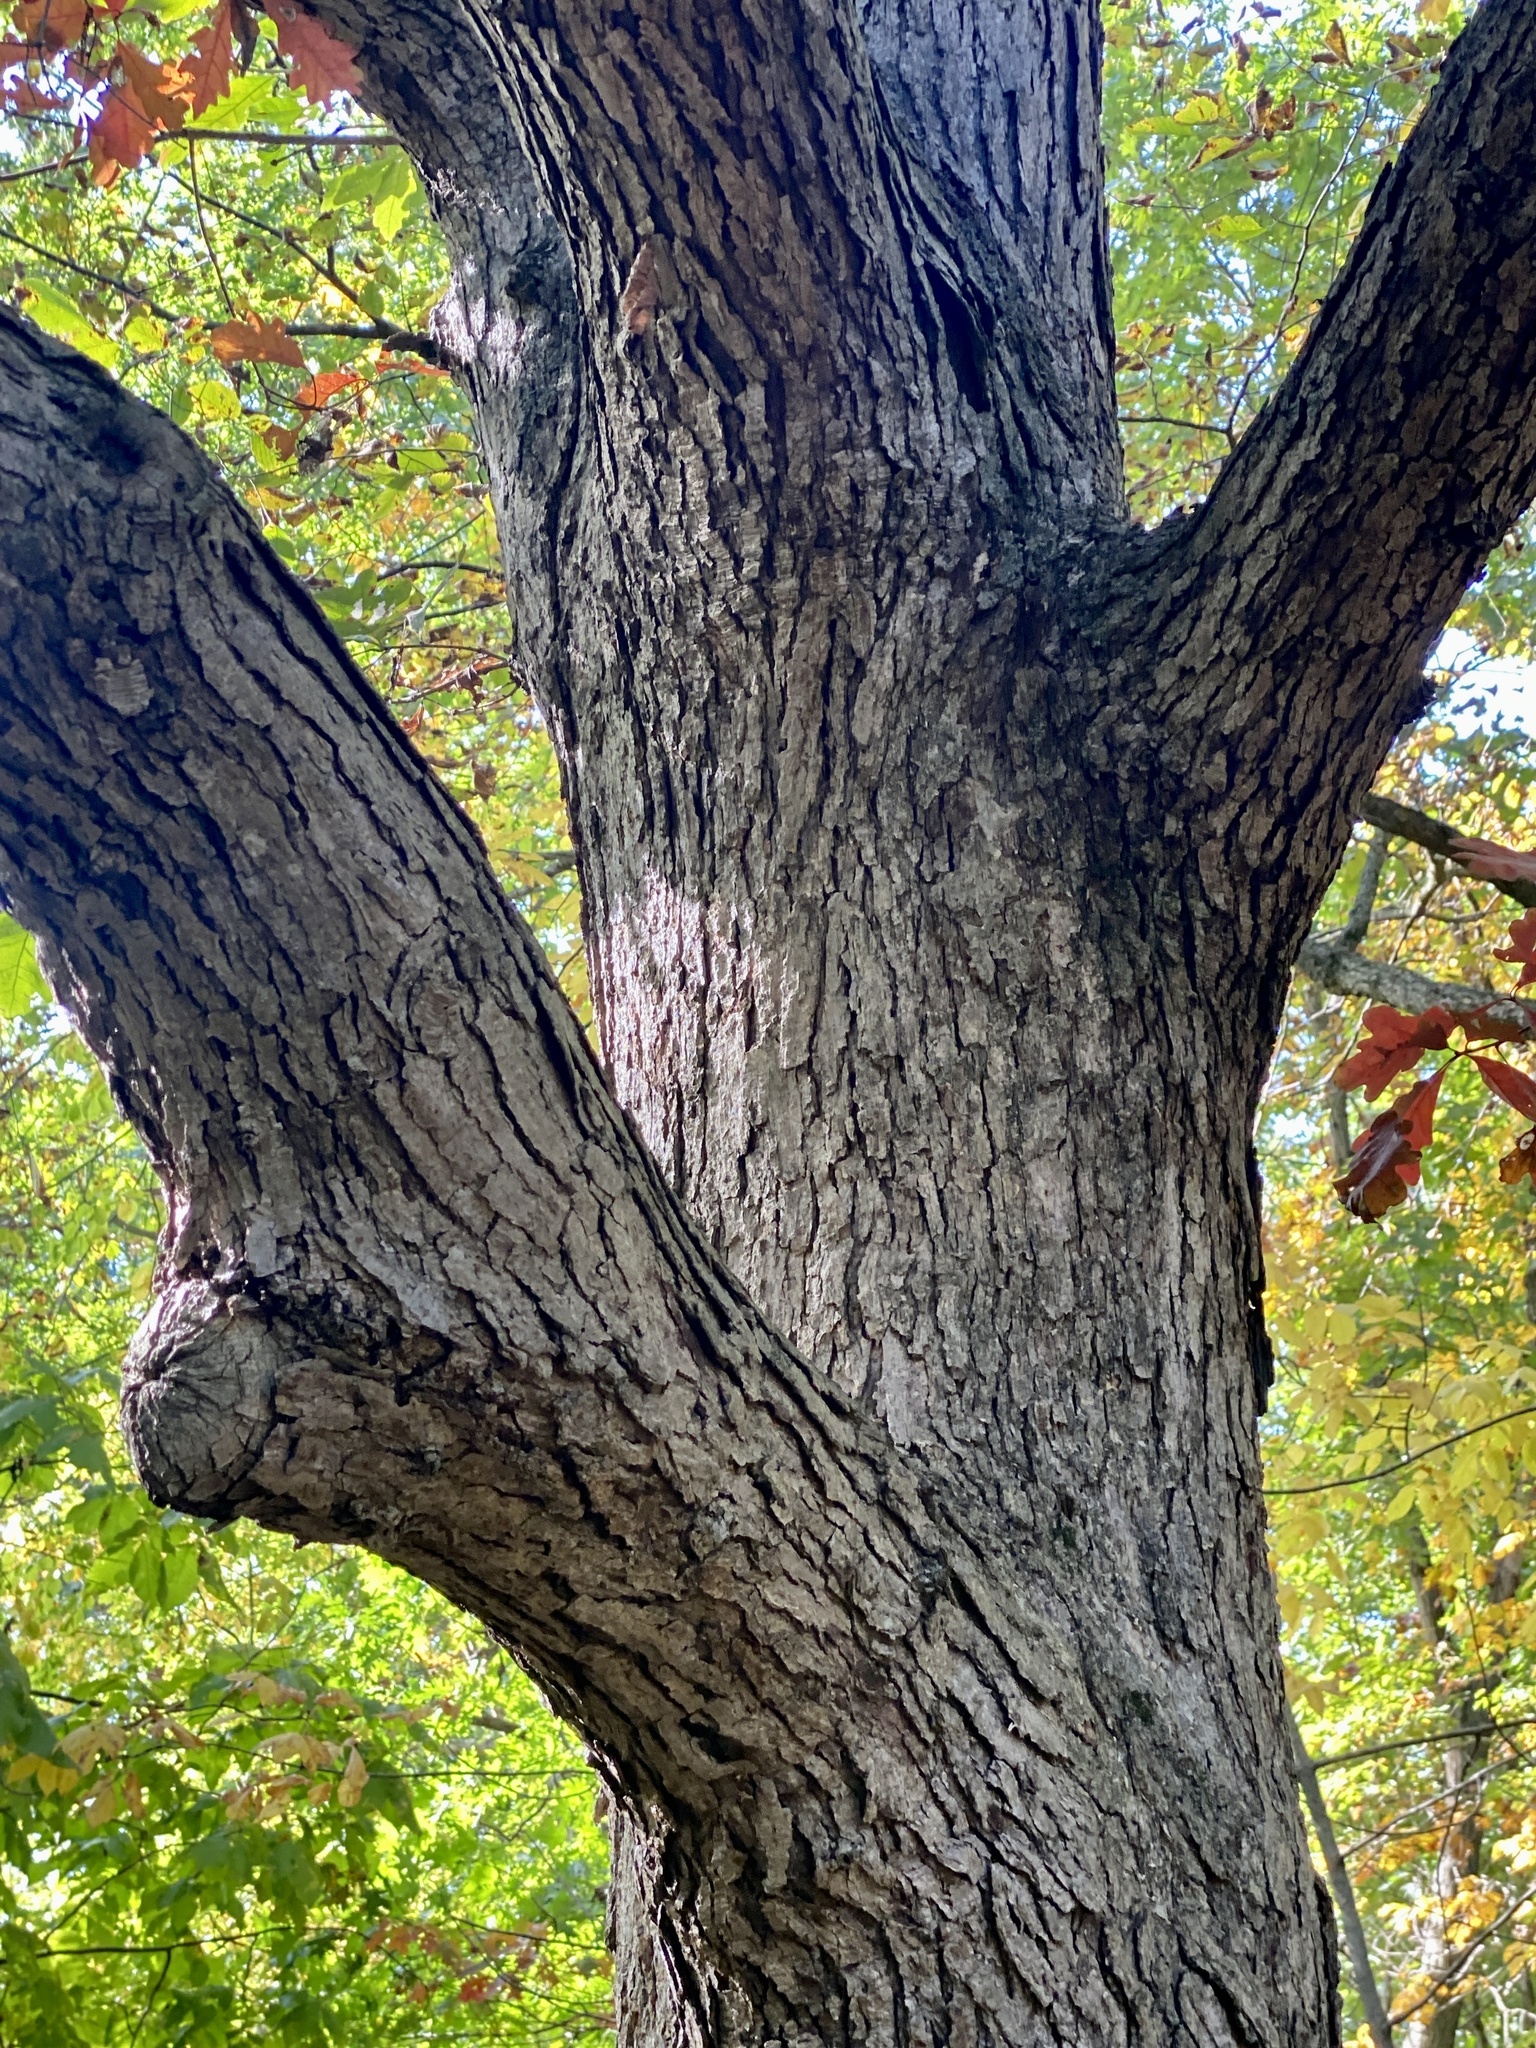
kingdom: Plantae
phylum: Tracheophyta
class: Magnoliopsida
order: Fagales
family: Fagaceae
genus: Quercus
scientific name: Quercus alba
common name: White oak
